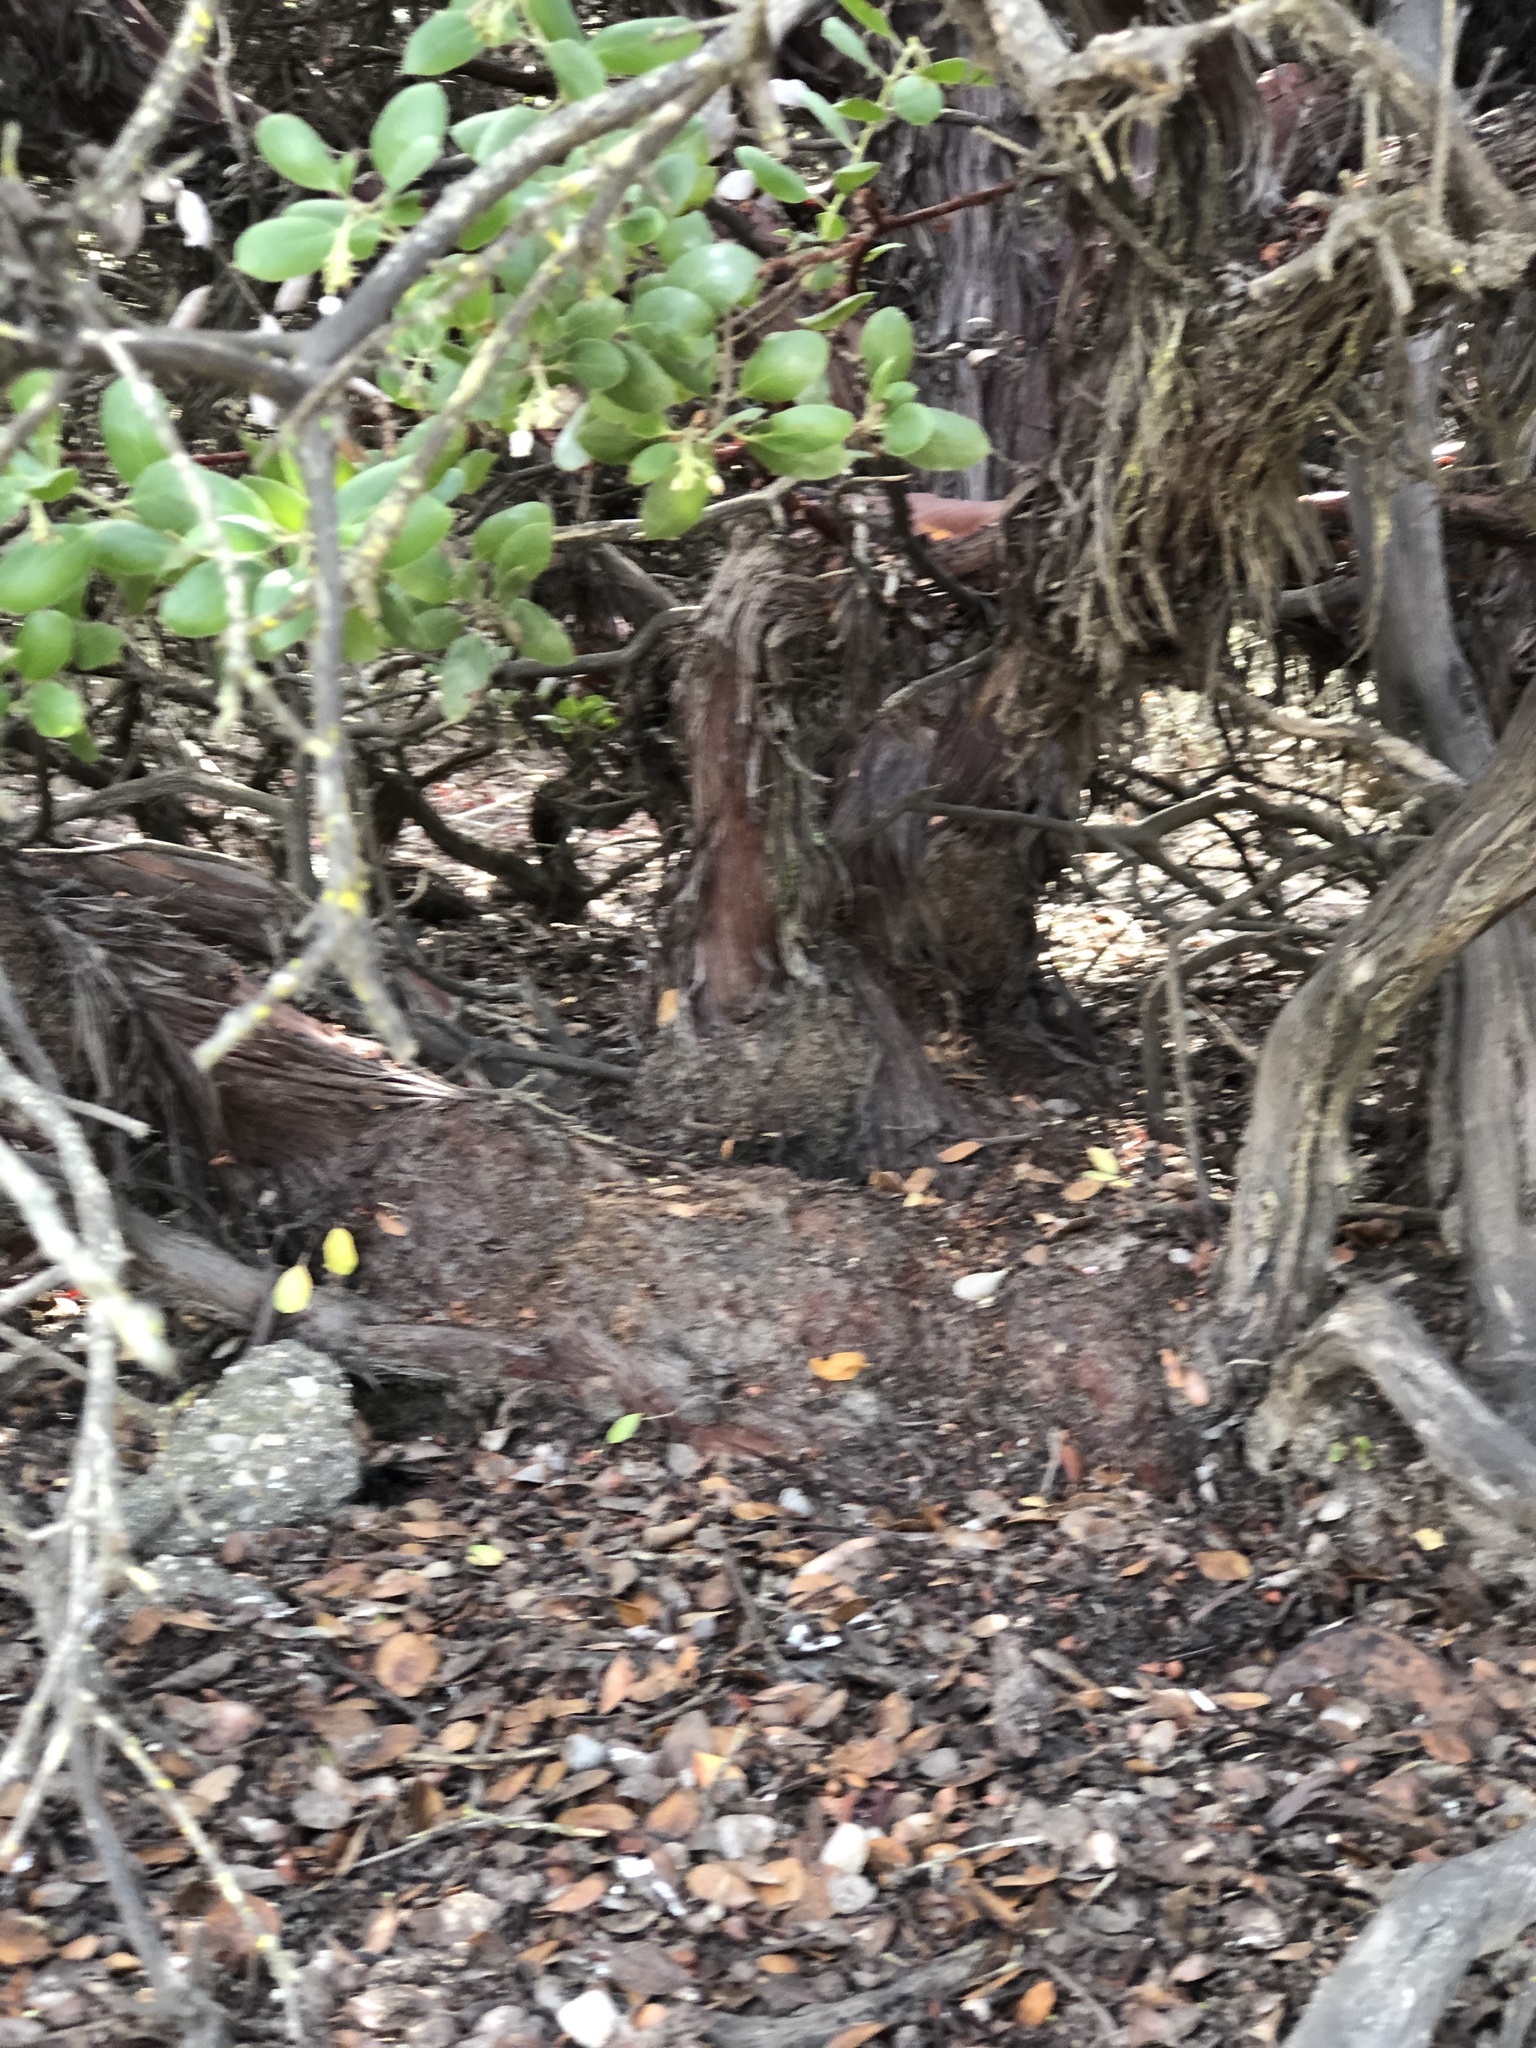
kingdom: Plantae
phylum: Tracheophyta
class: Magnoliopsida
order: Ericales
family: Ericaceae
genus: Arctostaphylos
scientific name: Arctostaphylos rudis
